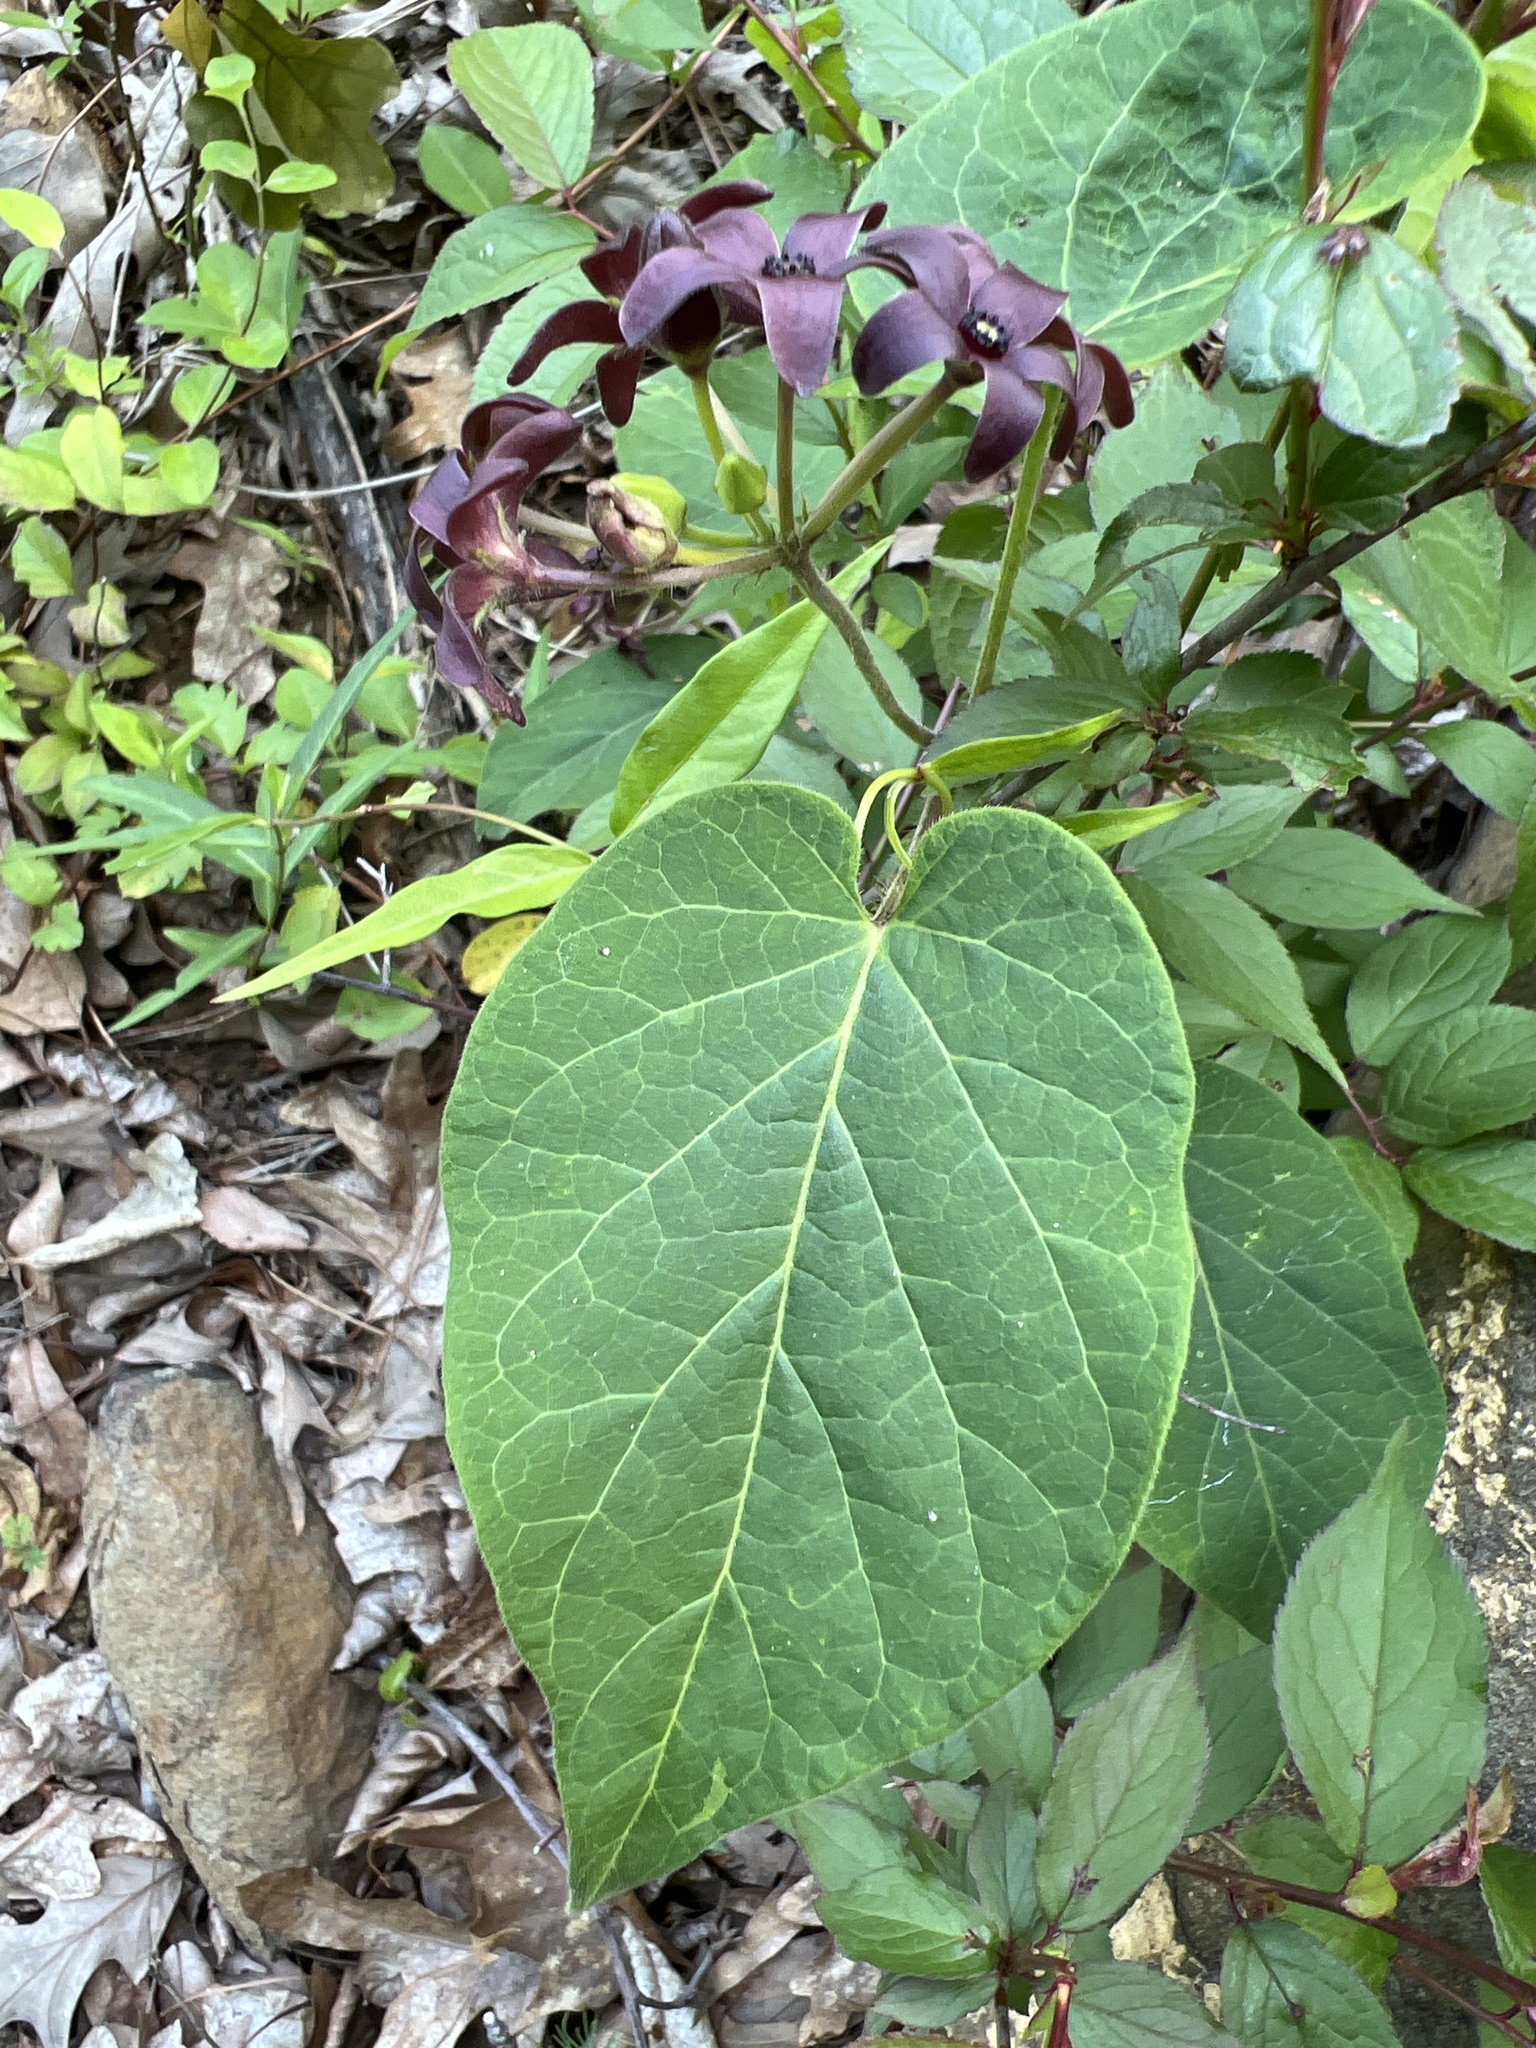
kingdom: Plantae
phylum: Tracheophyta
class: Magnoliopsida
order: Gentianales
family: Apocynaceae
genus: Matelea
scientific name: Matelea carolinensis
